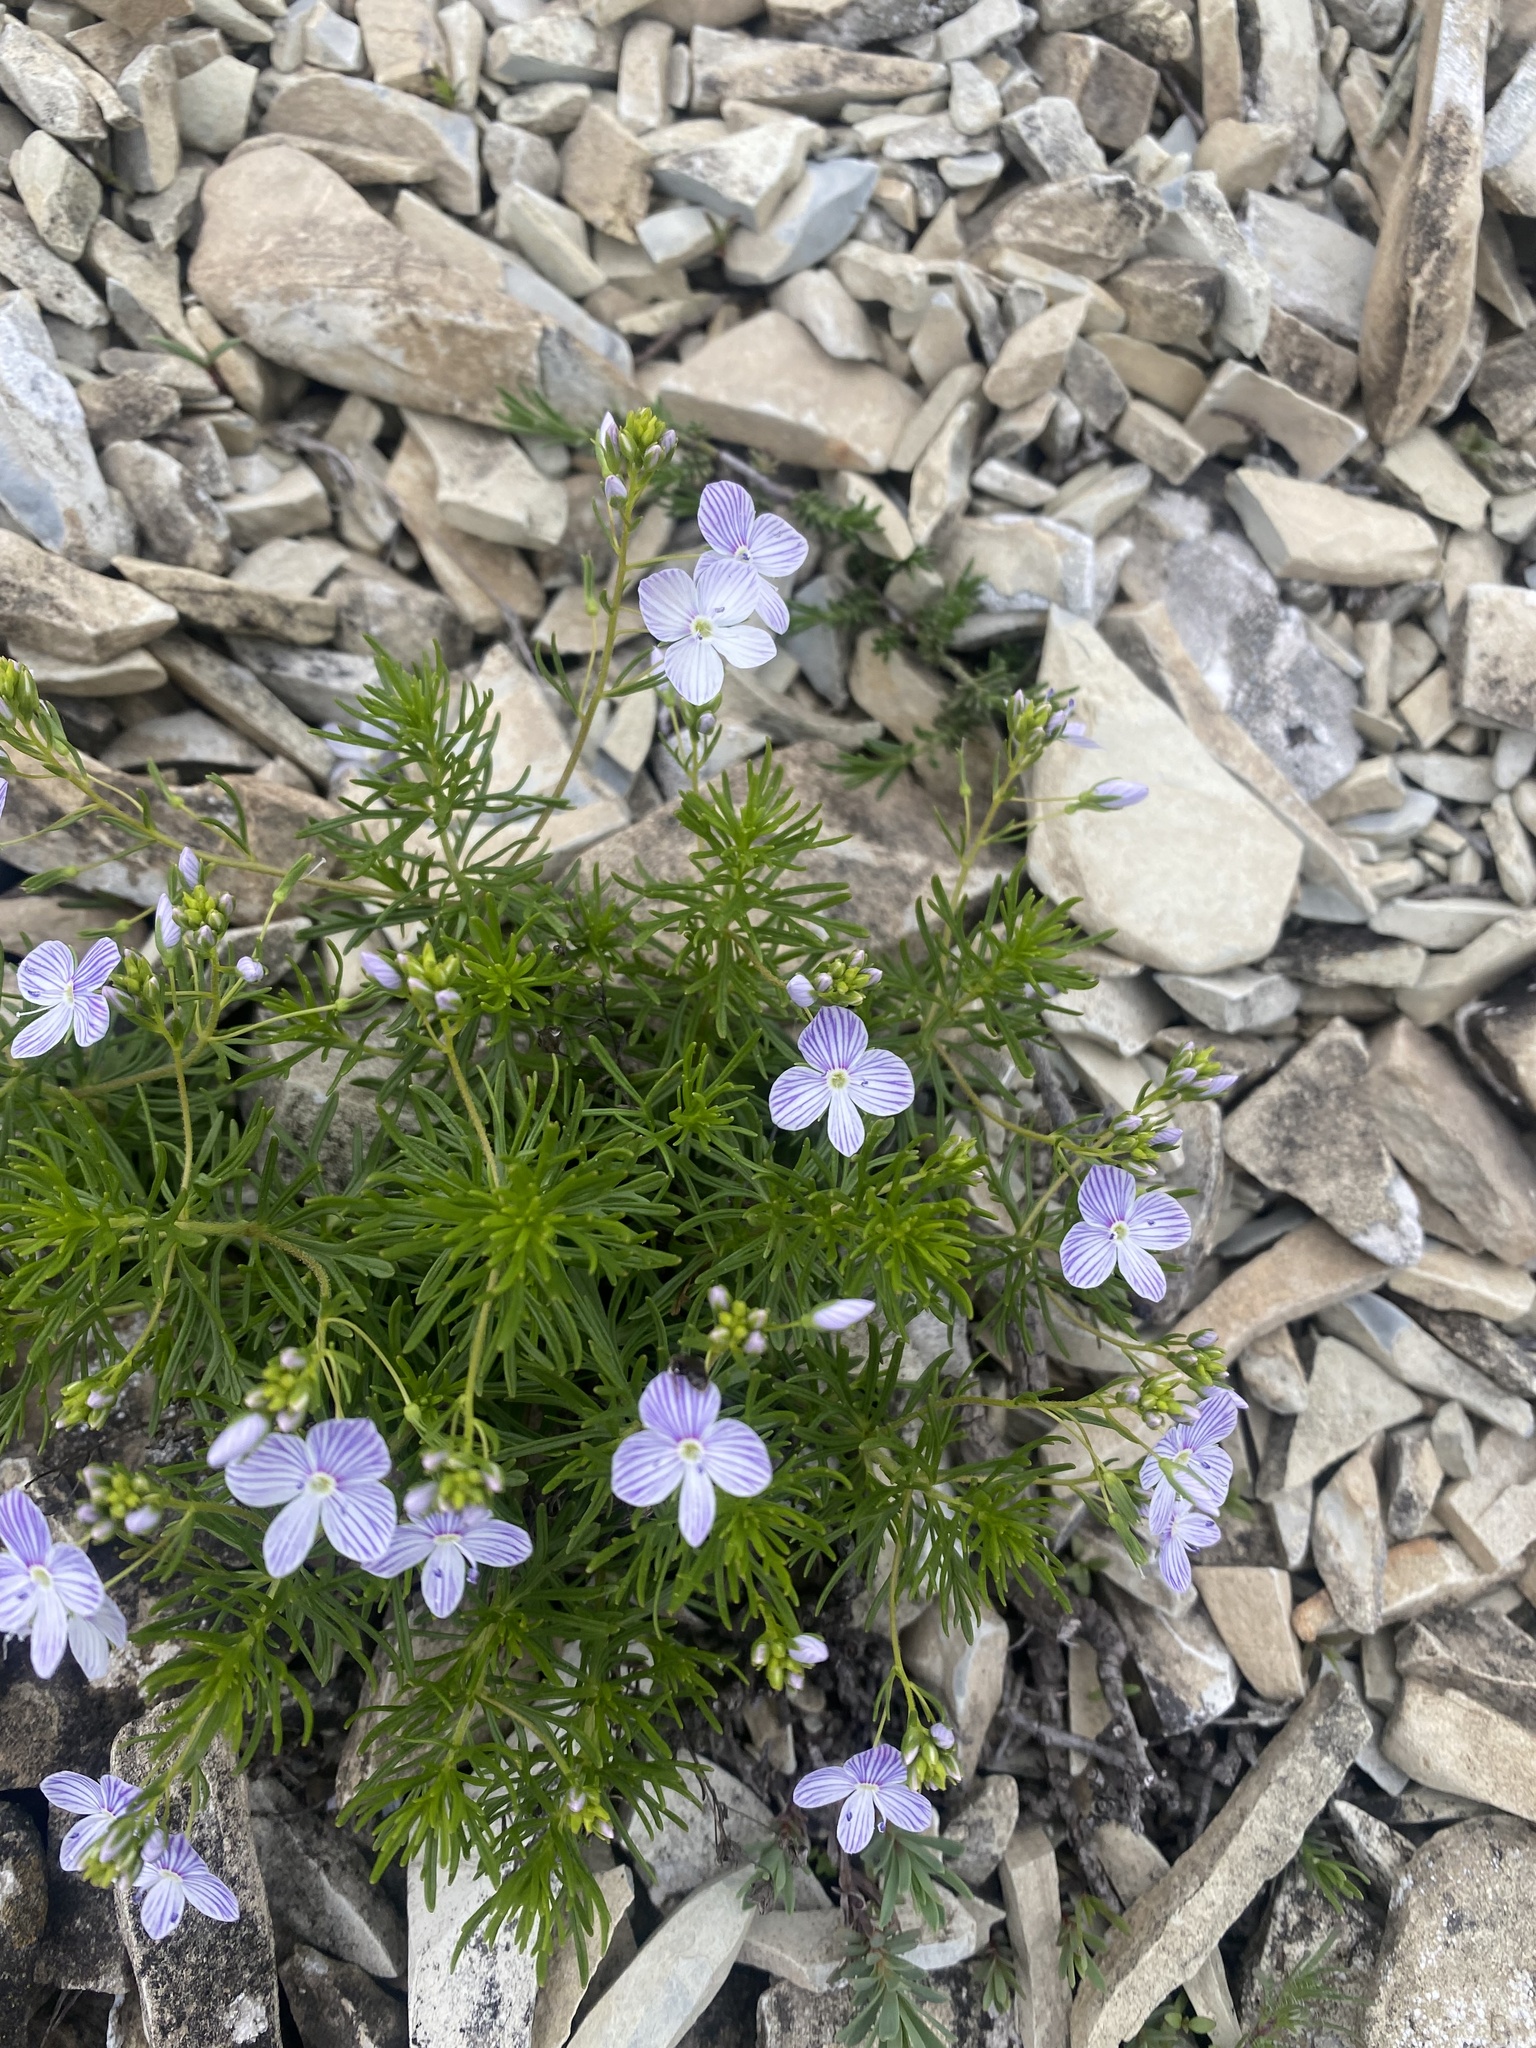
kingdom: Plantae
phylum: Tracheophyta
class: Magnoliopsida
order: Lamiales
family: Plantaginaceae
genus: Veronica
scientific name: Veronica filifolia
